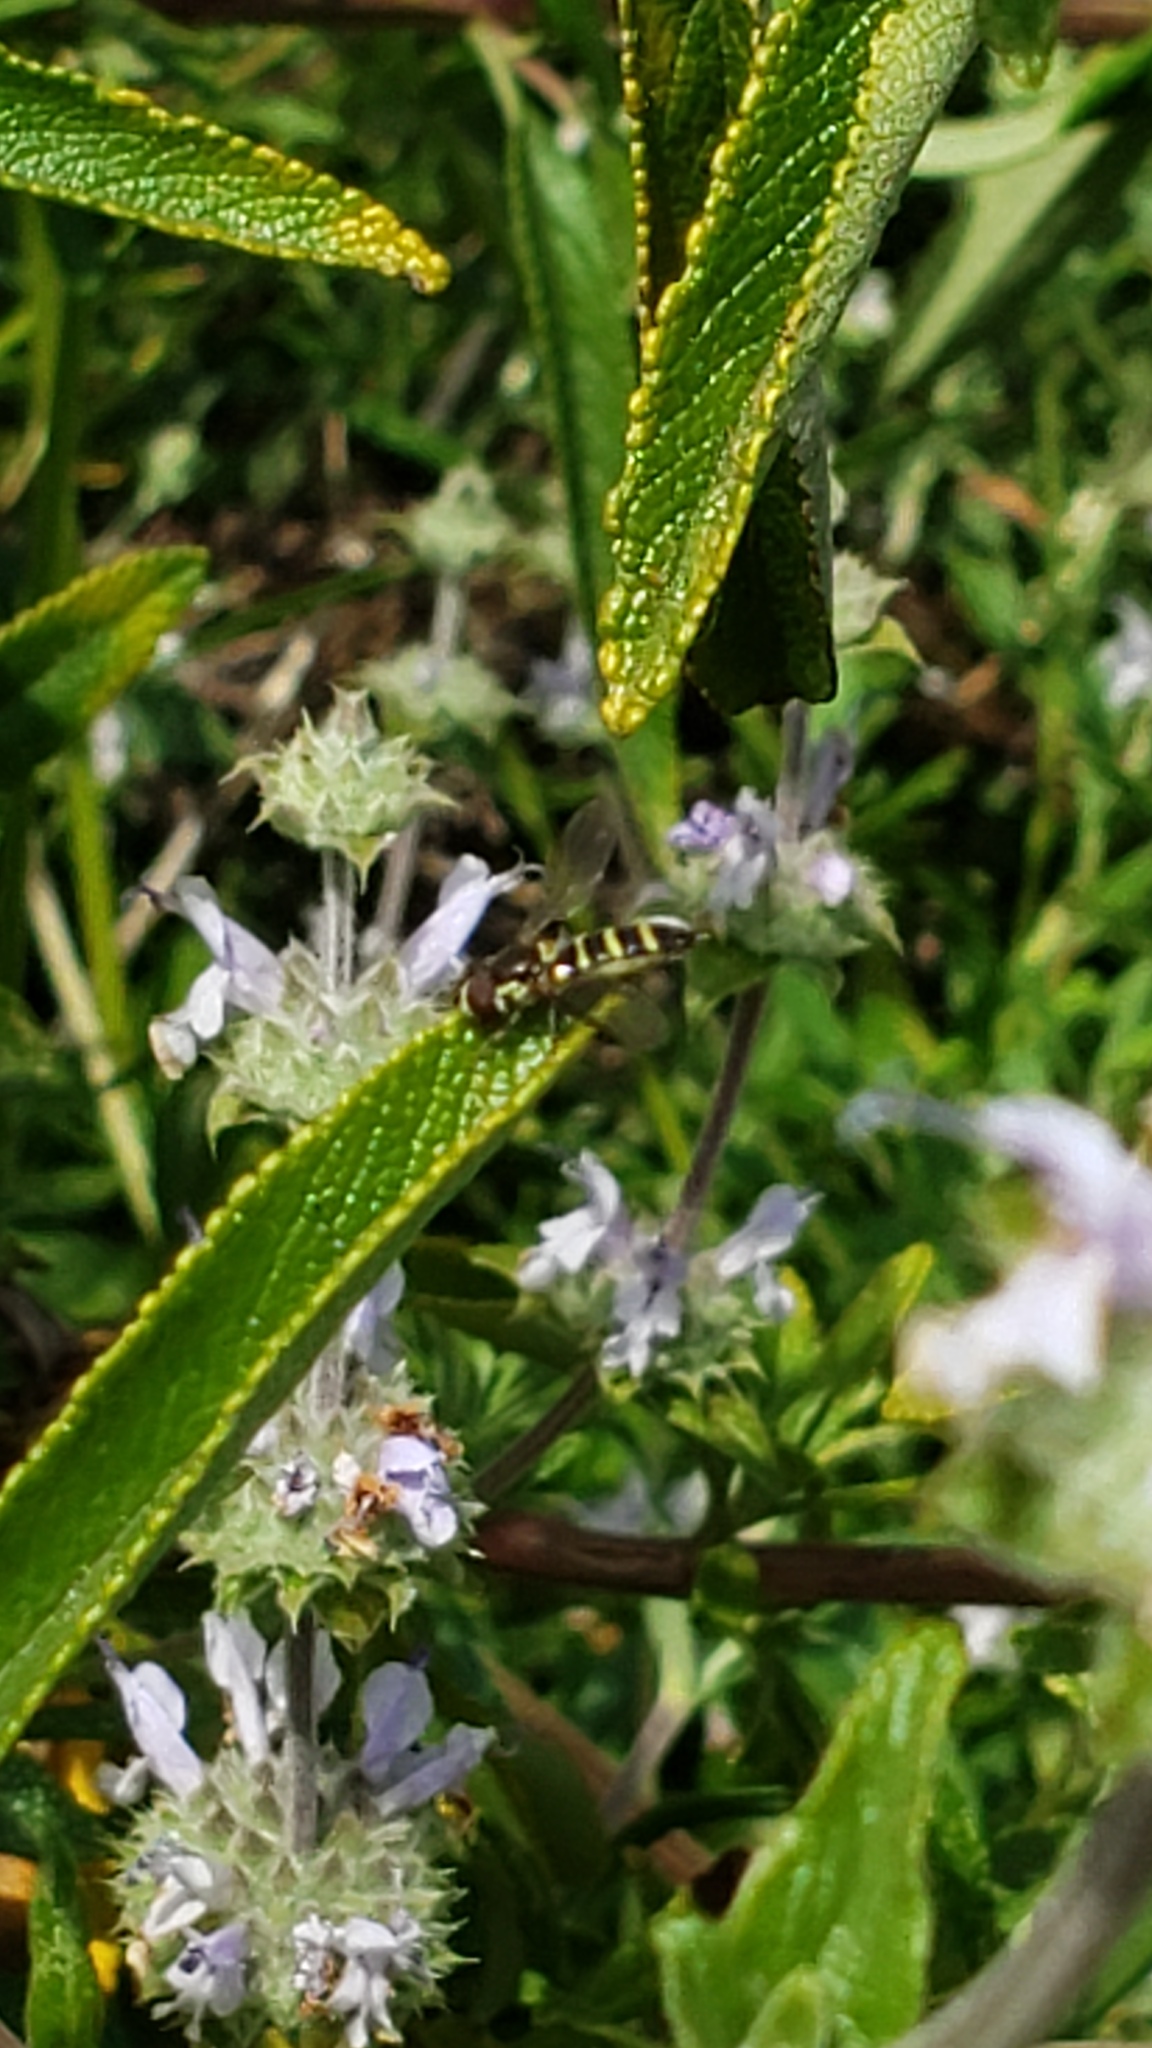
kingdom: Animalia
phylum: Arthropoda
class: Insecta
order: Diptera
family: Syrphidae
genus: Fazia
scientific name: Fazia micrura
